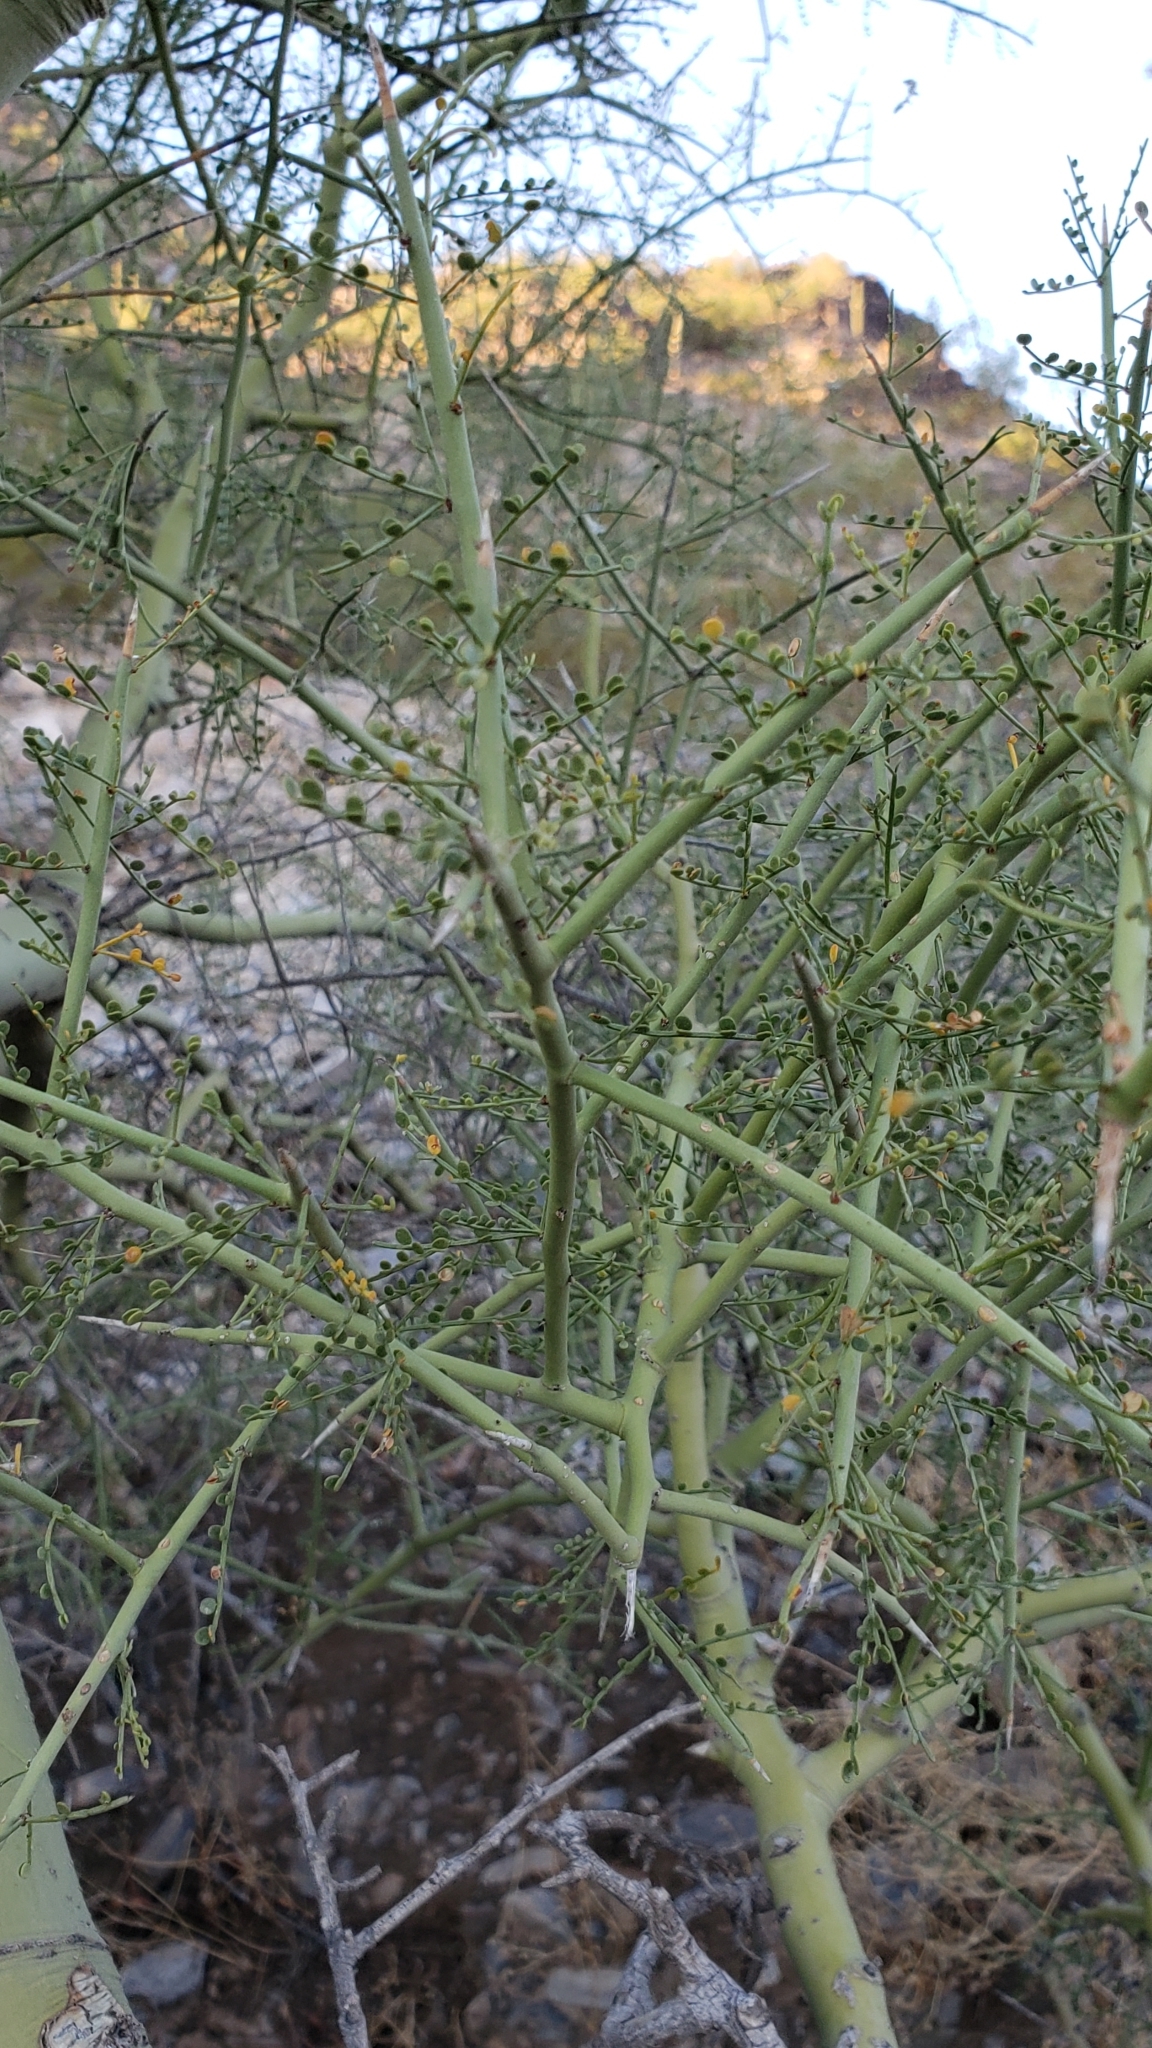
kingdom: Plantae
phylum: Tracheophyta
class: Magnoliopsida
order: Fabales
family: Fabaceae
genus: Parkinsonia
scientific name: Parkinsonia microphylla
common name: Yellow paloverde
